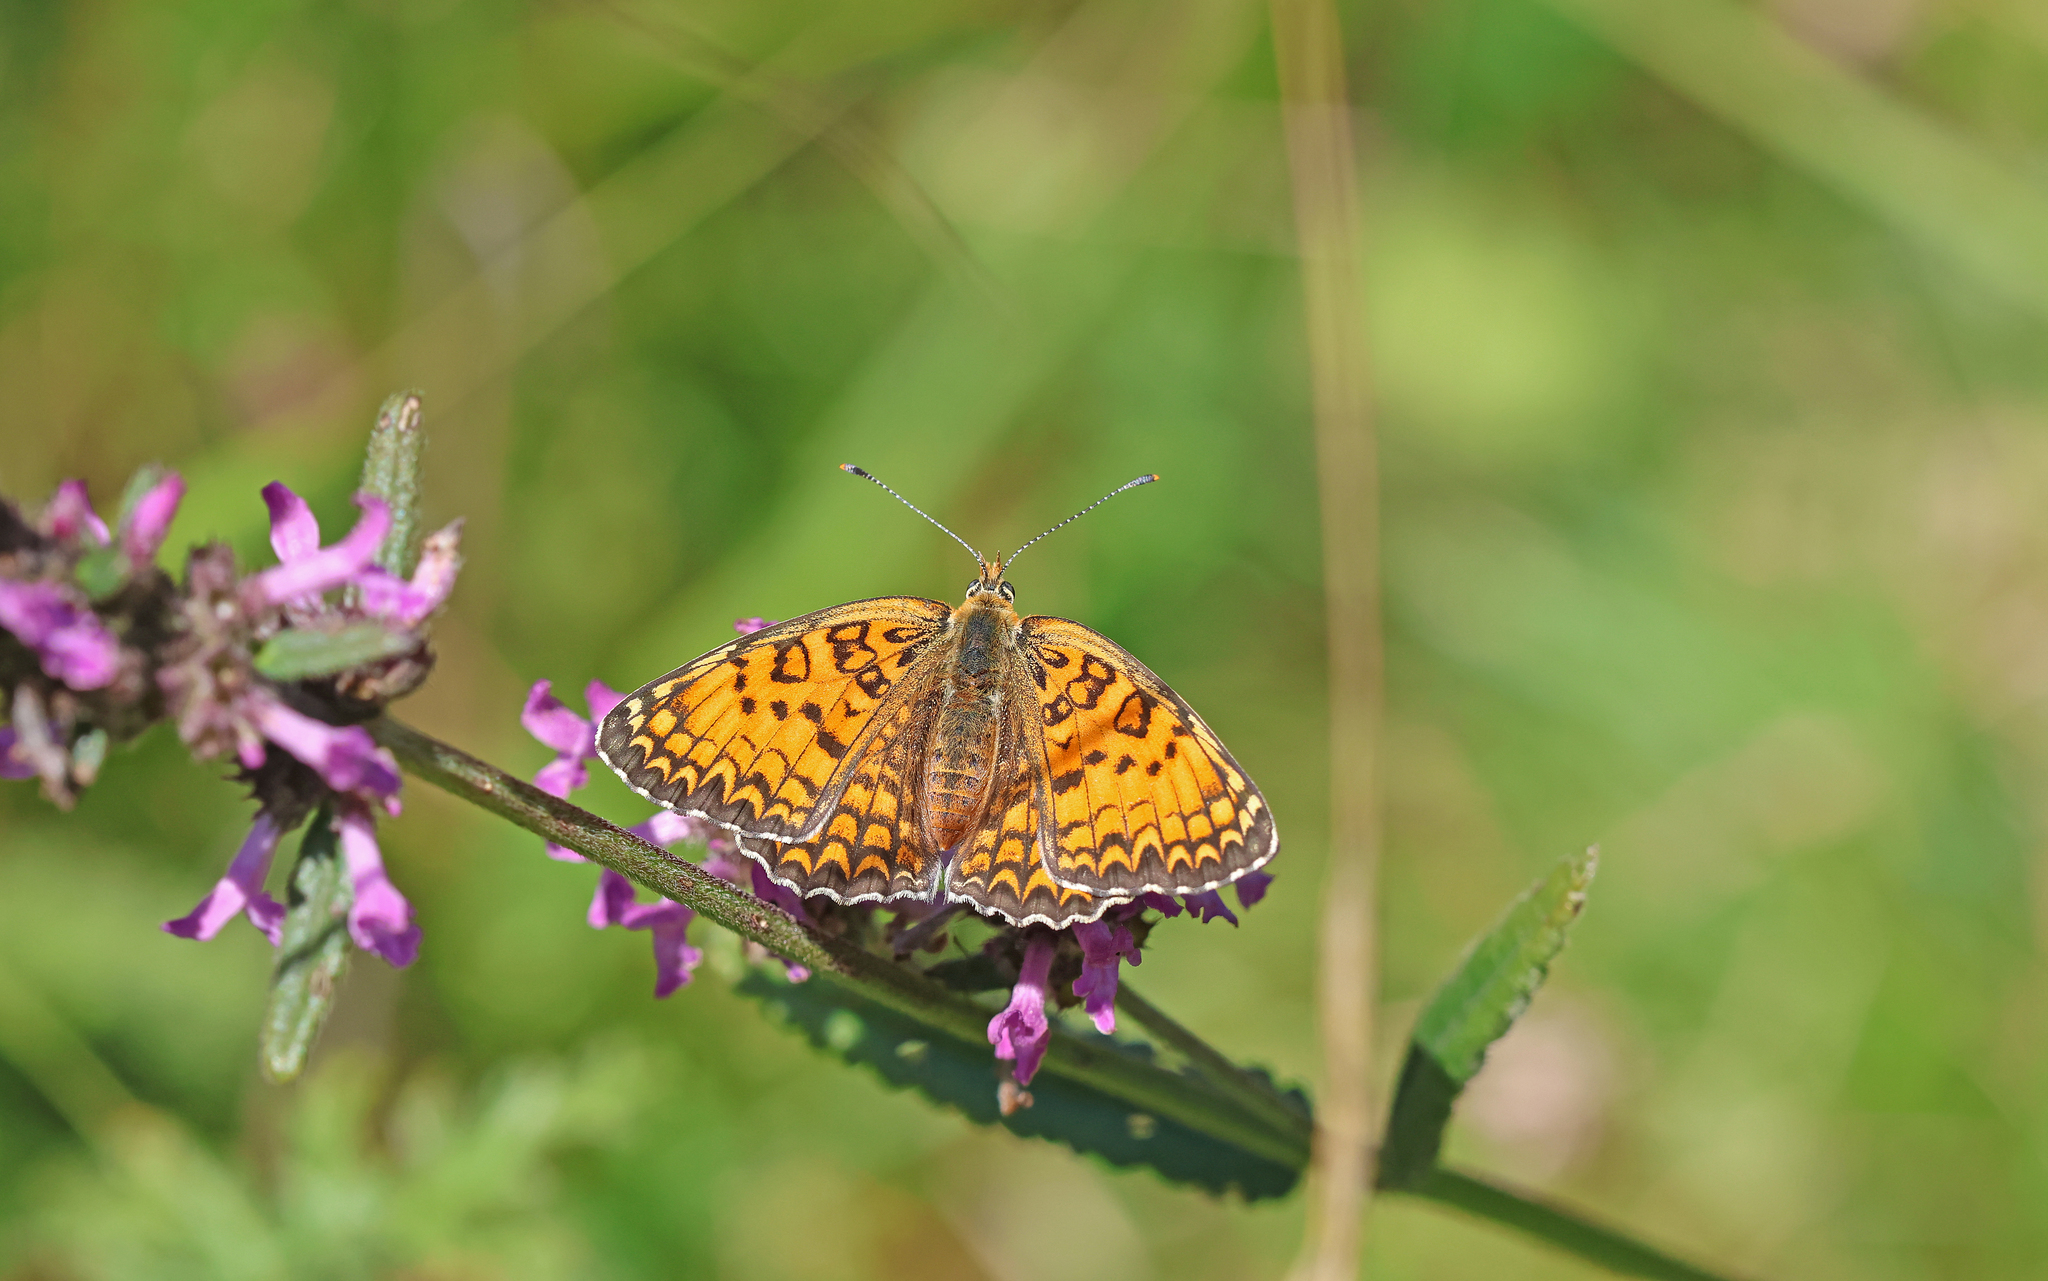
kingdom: Animalia
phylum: Arthropoda
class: Insecta
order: Lepidoptera
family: Nymphalidae
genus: Melitaea
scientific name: Melitaea phoebe
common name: Knapweed fritillary
